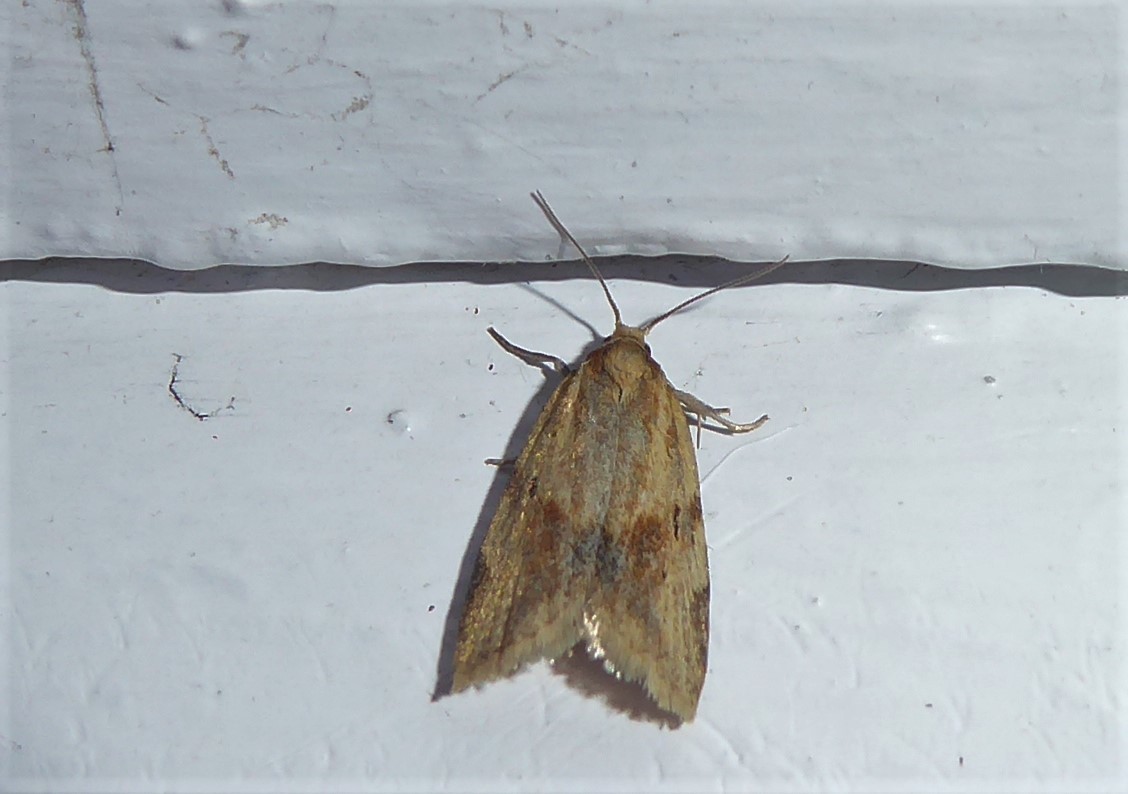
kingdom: Animalia
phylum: Arthropoda
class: Insecta
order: Lepidoptera
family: Tortricidae
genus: Clepsis
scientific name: Clepsis
